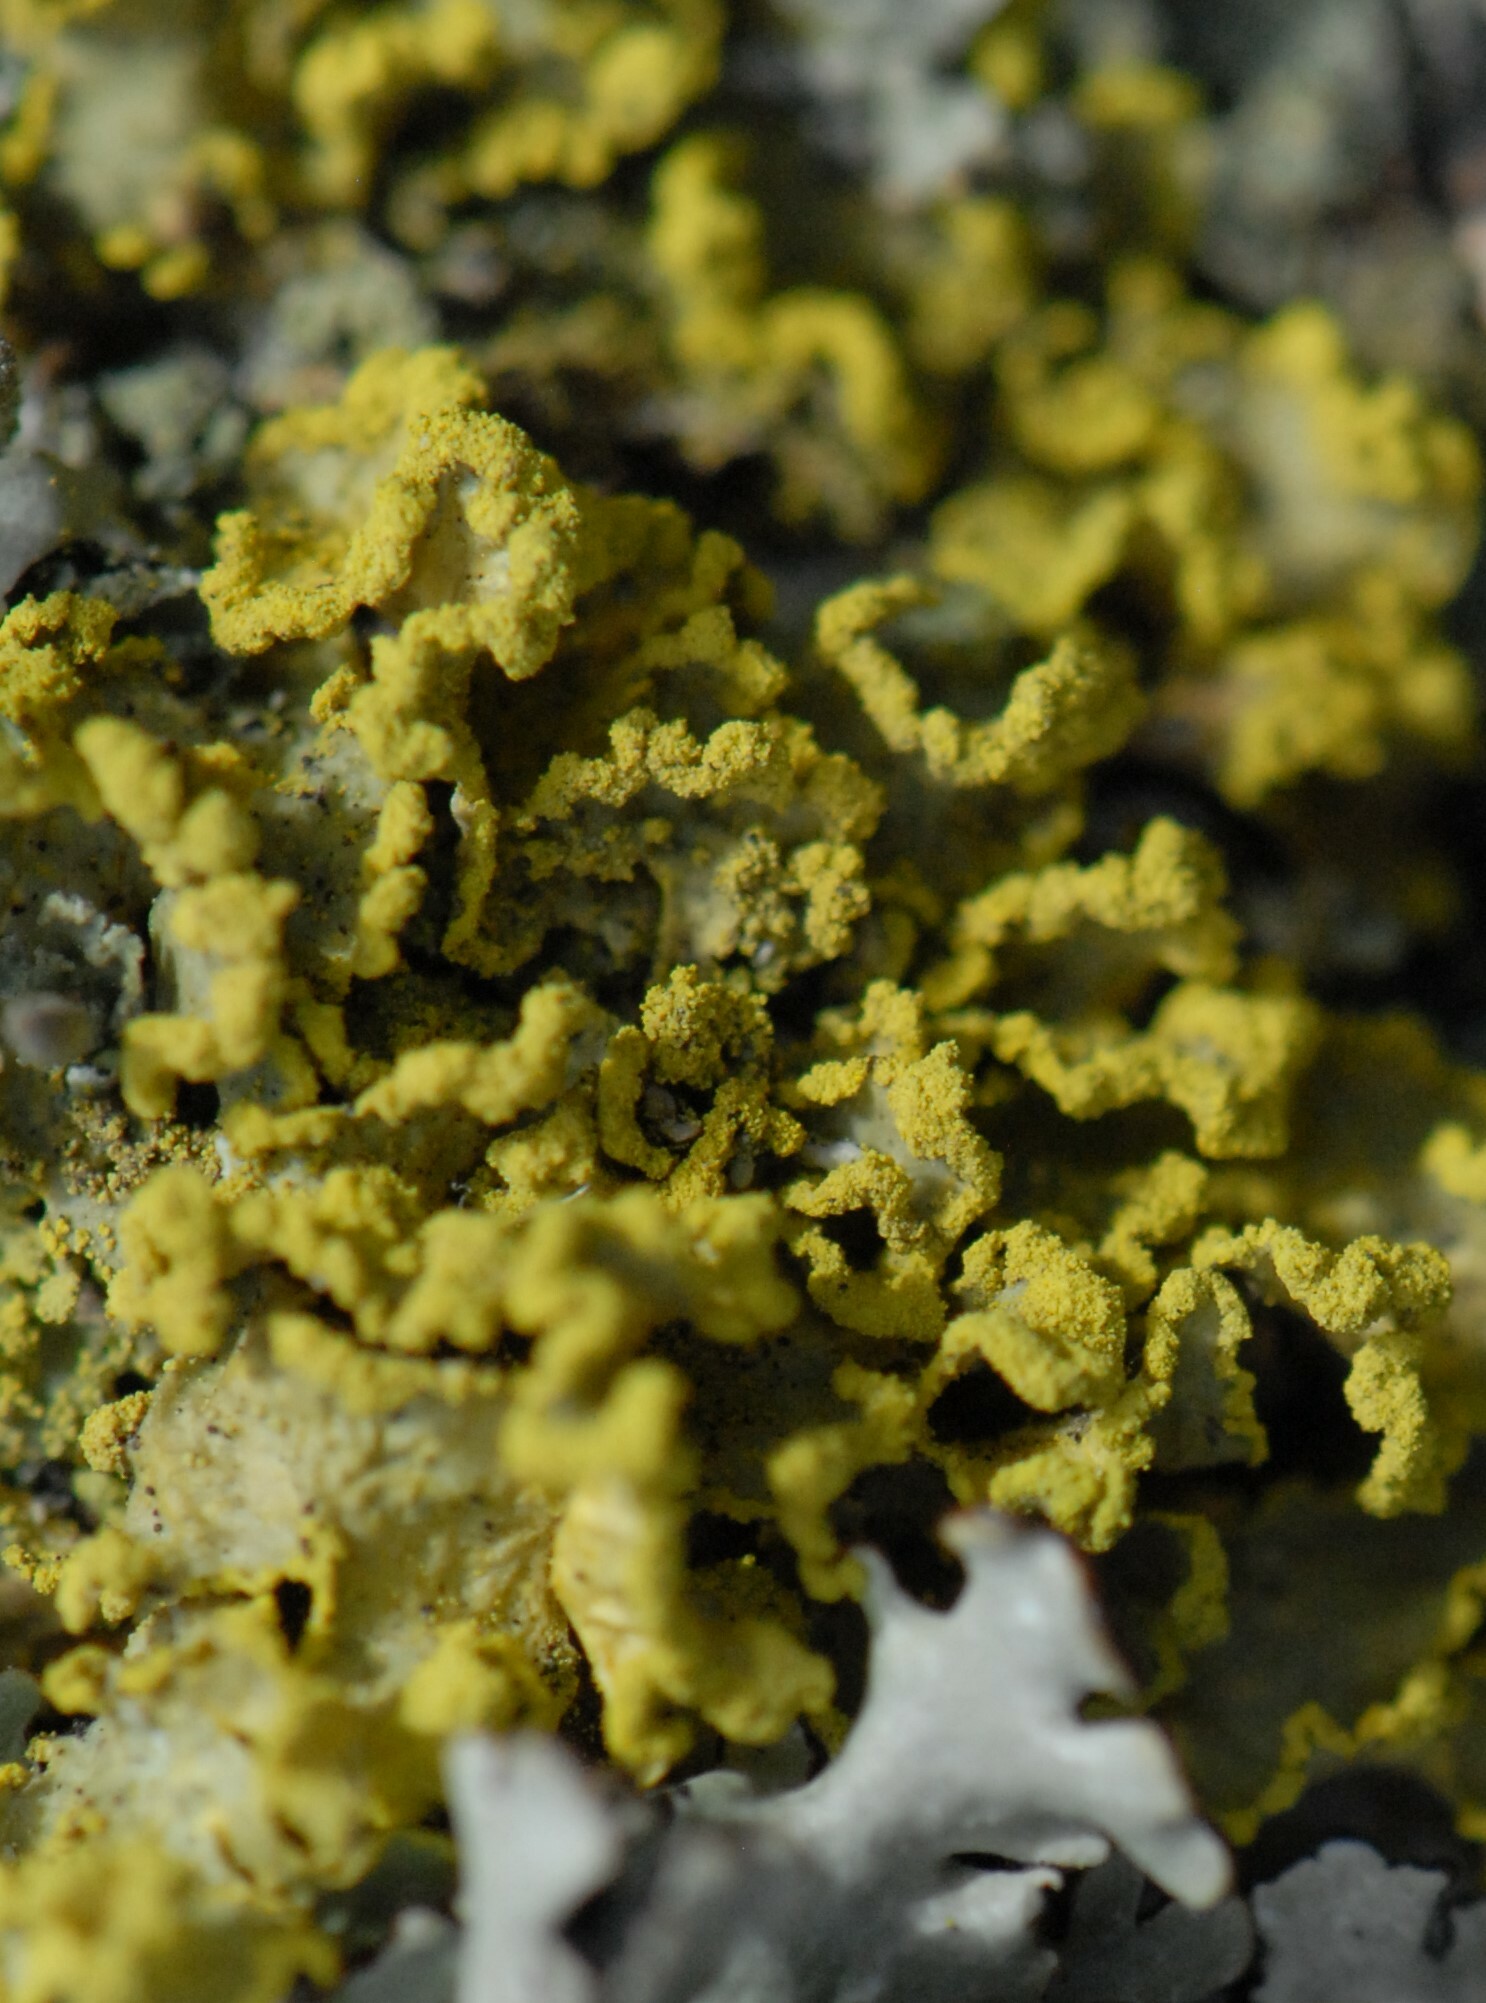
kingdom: Fungi
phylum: Ascomycota
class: Lecanoromycetes
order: Lecanorales
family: Parmeliaceae
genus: Vulpicida
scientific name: Vulpicida pinastri
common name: Powdered sunshine lichen
